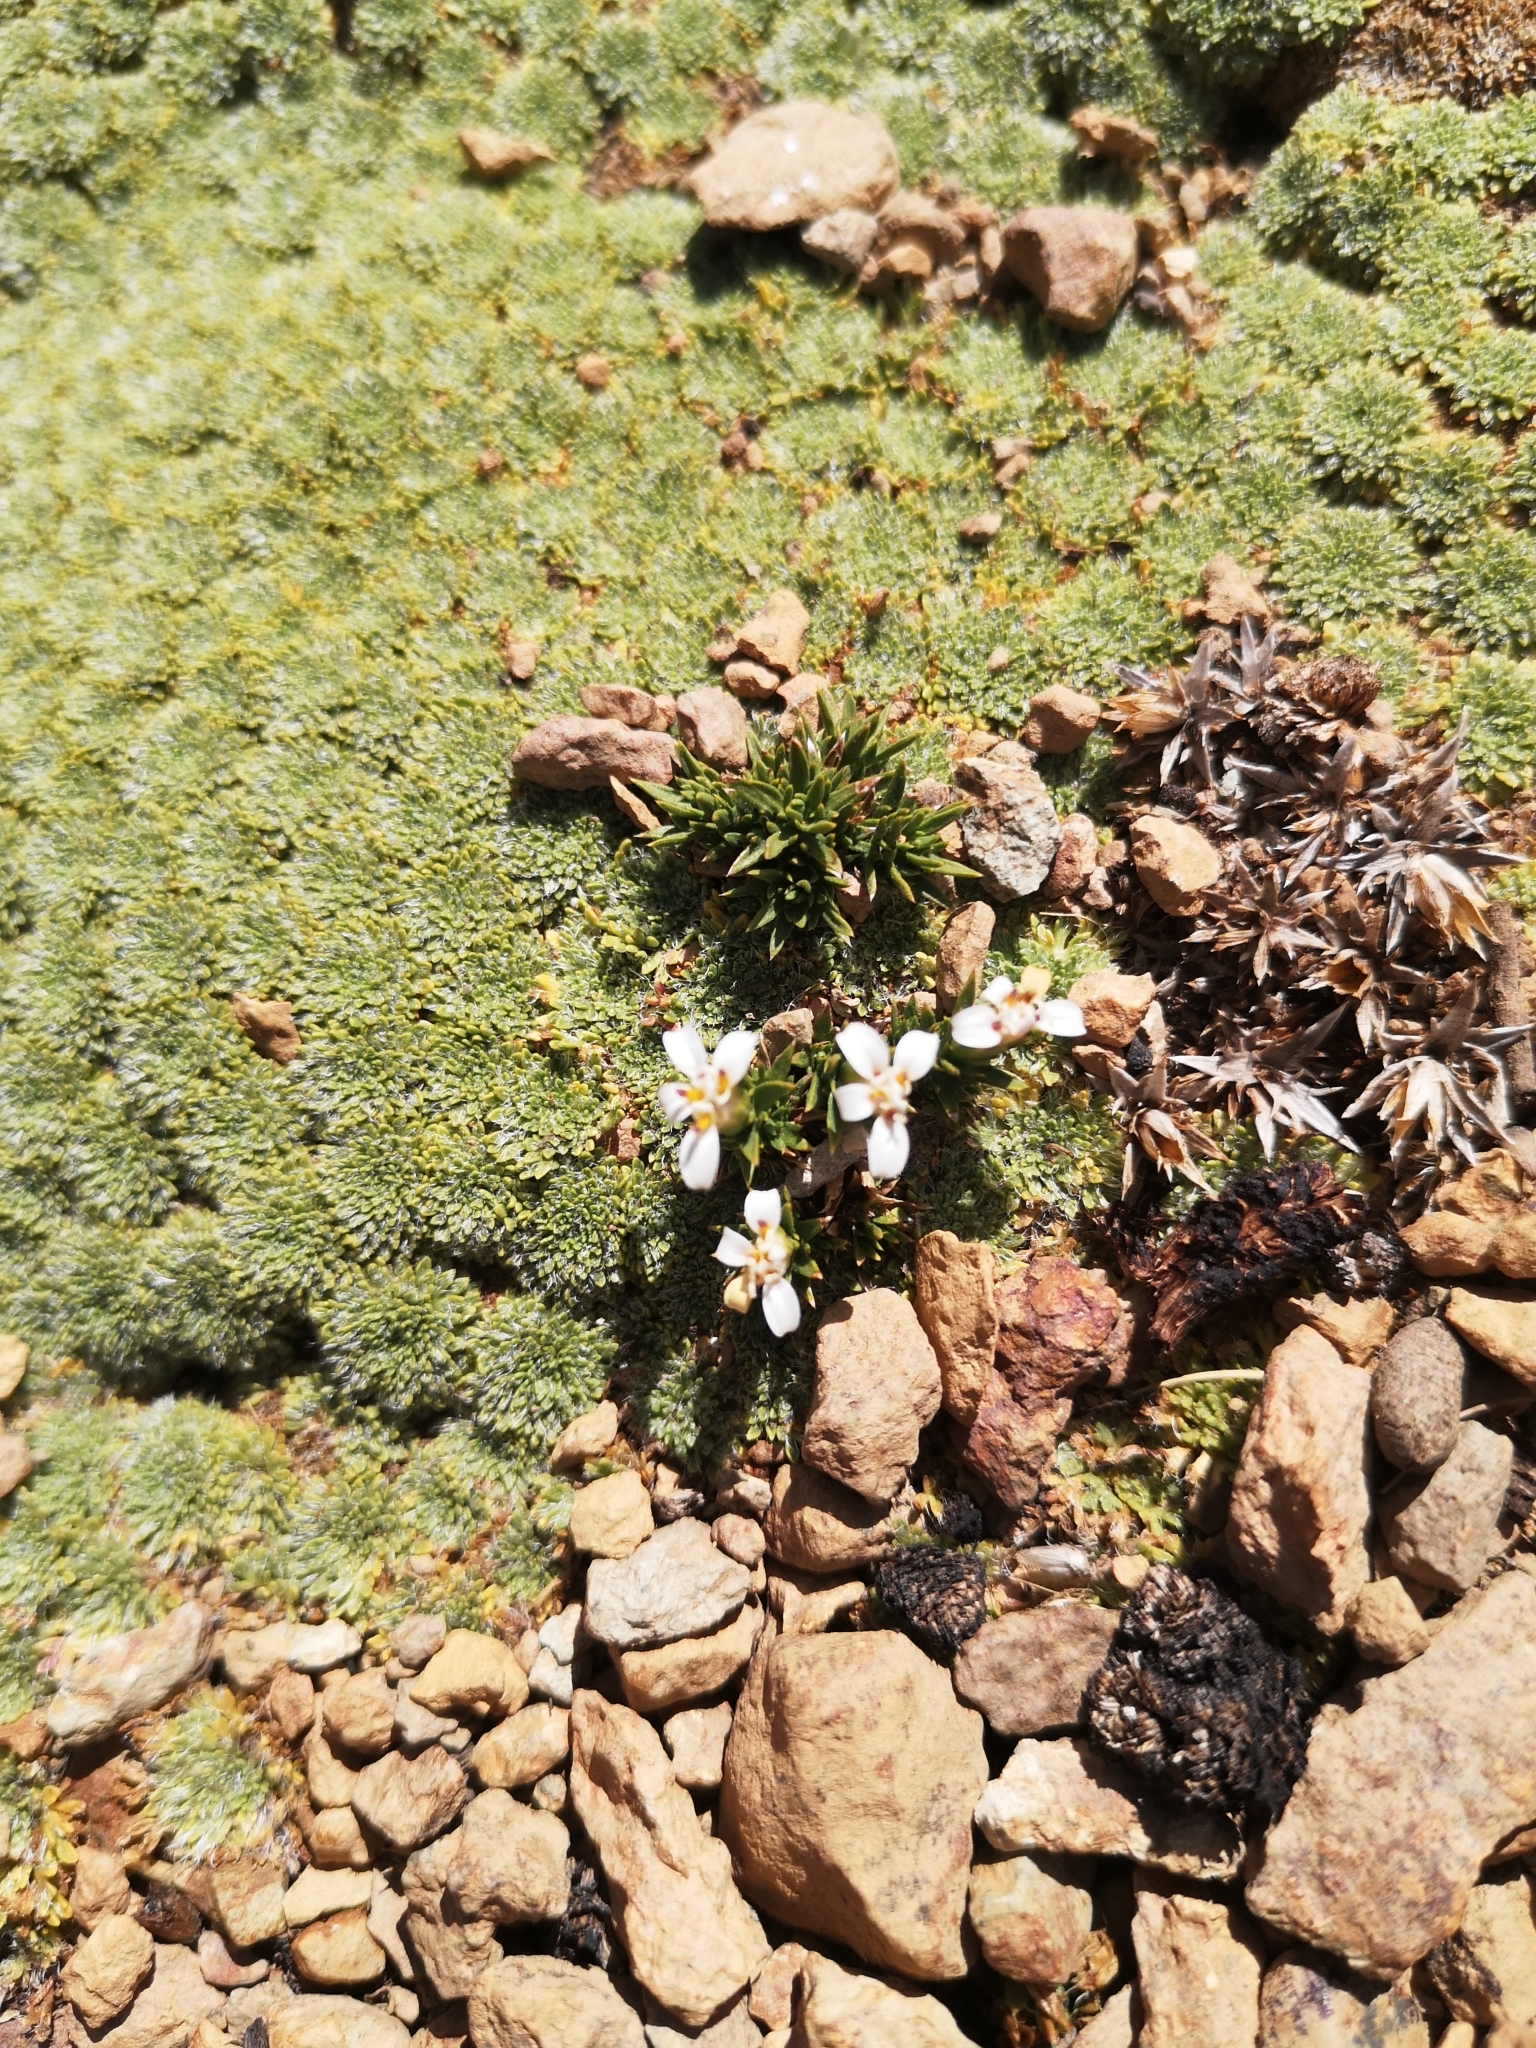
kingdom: Plantae
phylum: Tracheophyta
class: Magnoliopsida
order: Asterales
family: Asteraceae
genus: Nassauvia
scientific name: Nassauvia looseri
